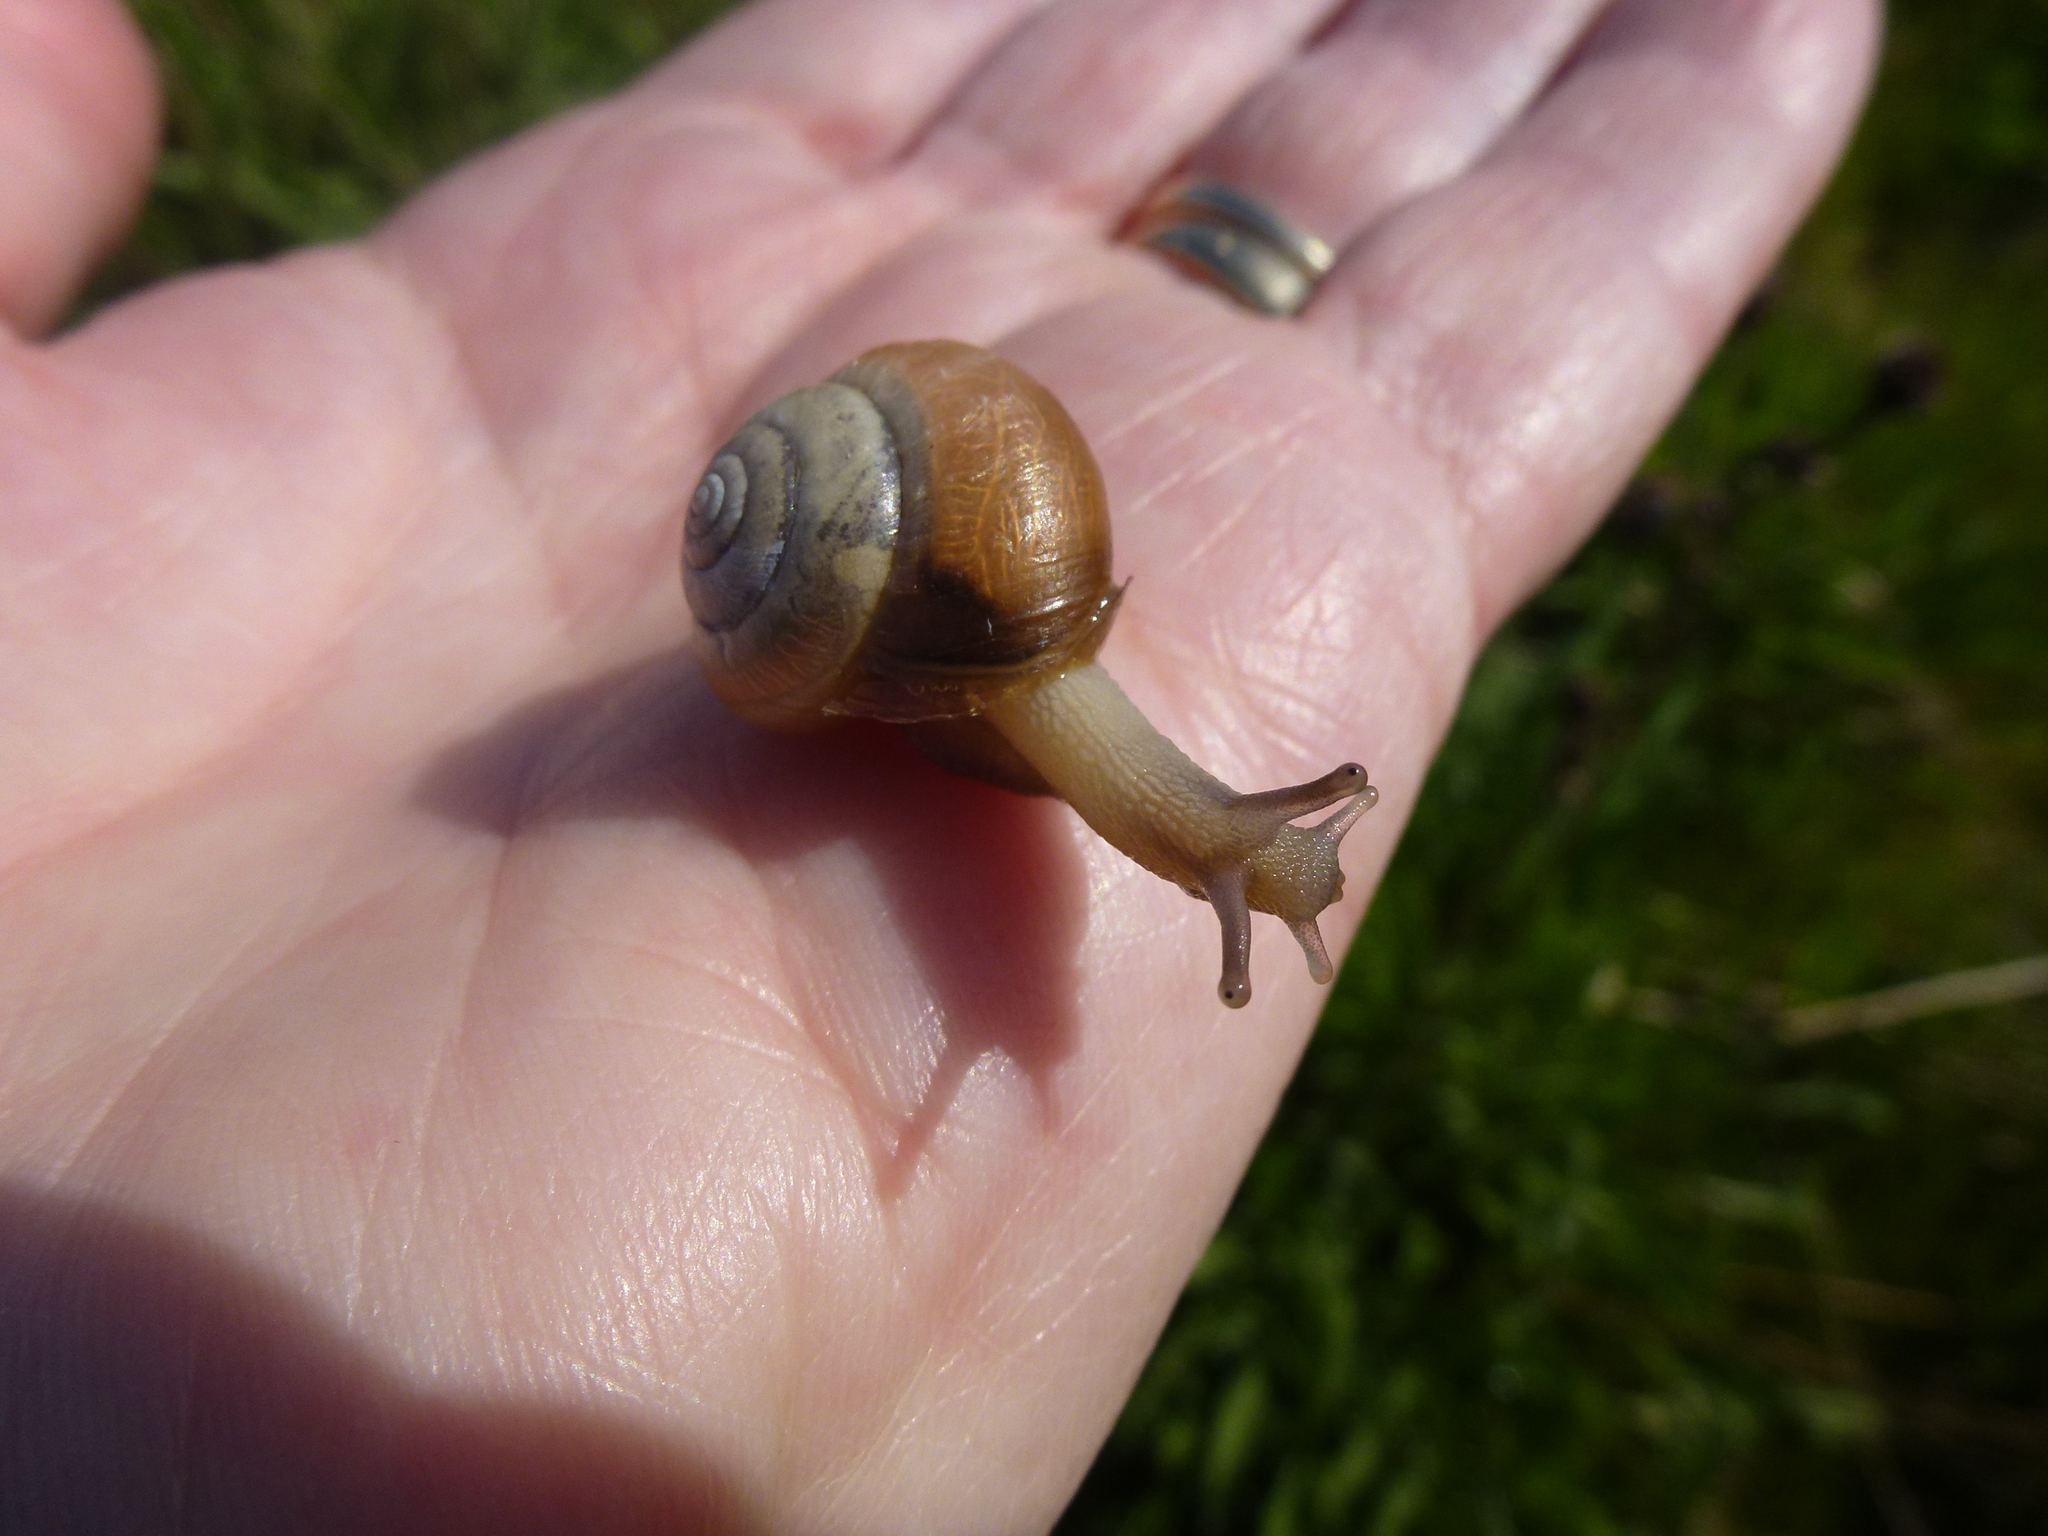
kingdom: Animalia
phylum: Mollusca
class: Gastropoda
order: Stylommatophora
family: Hygromiidae
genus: Monacha
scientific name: Monacha cantiana
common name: Kentish snail
